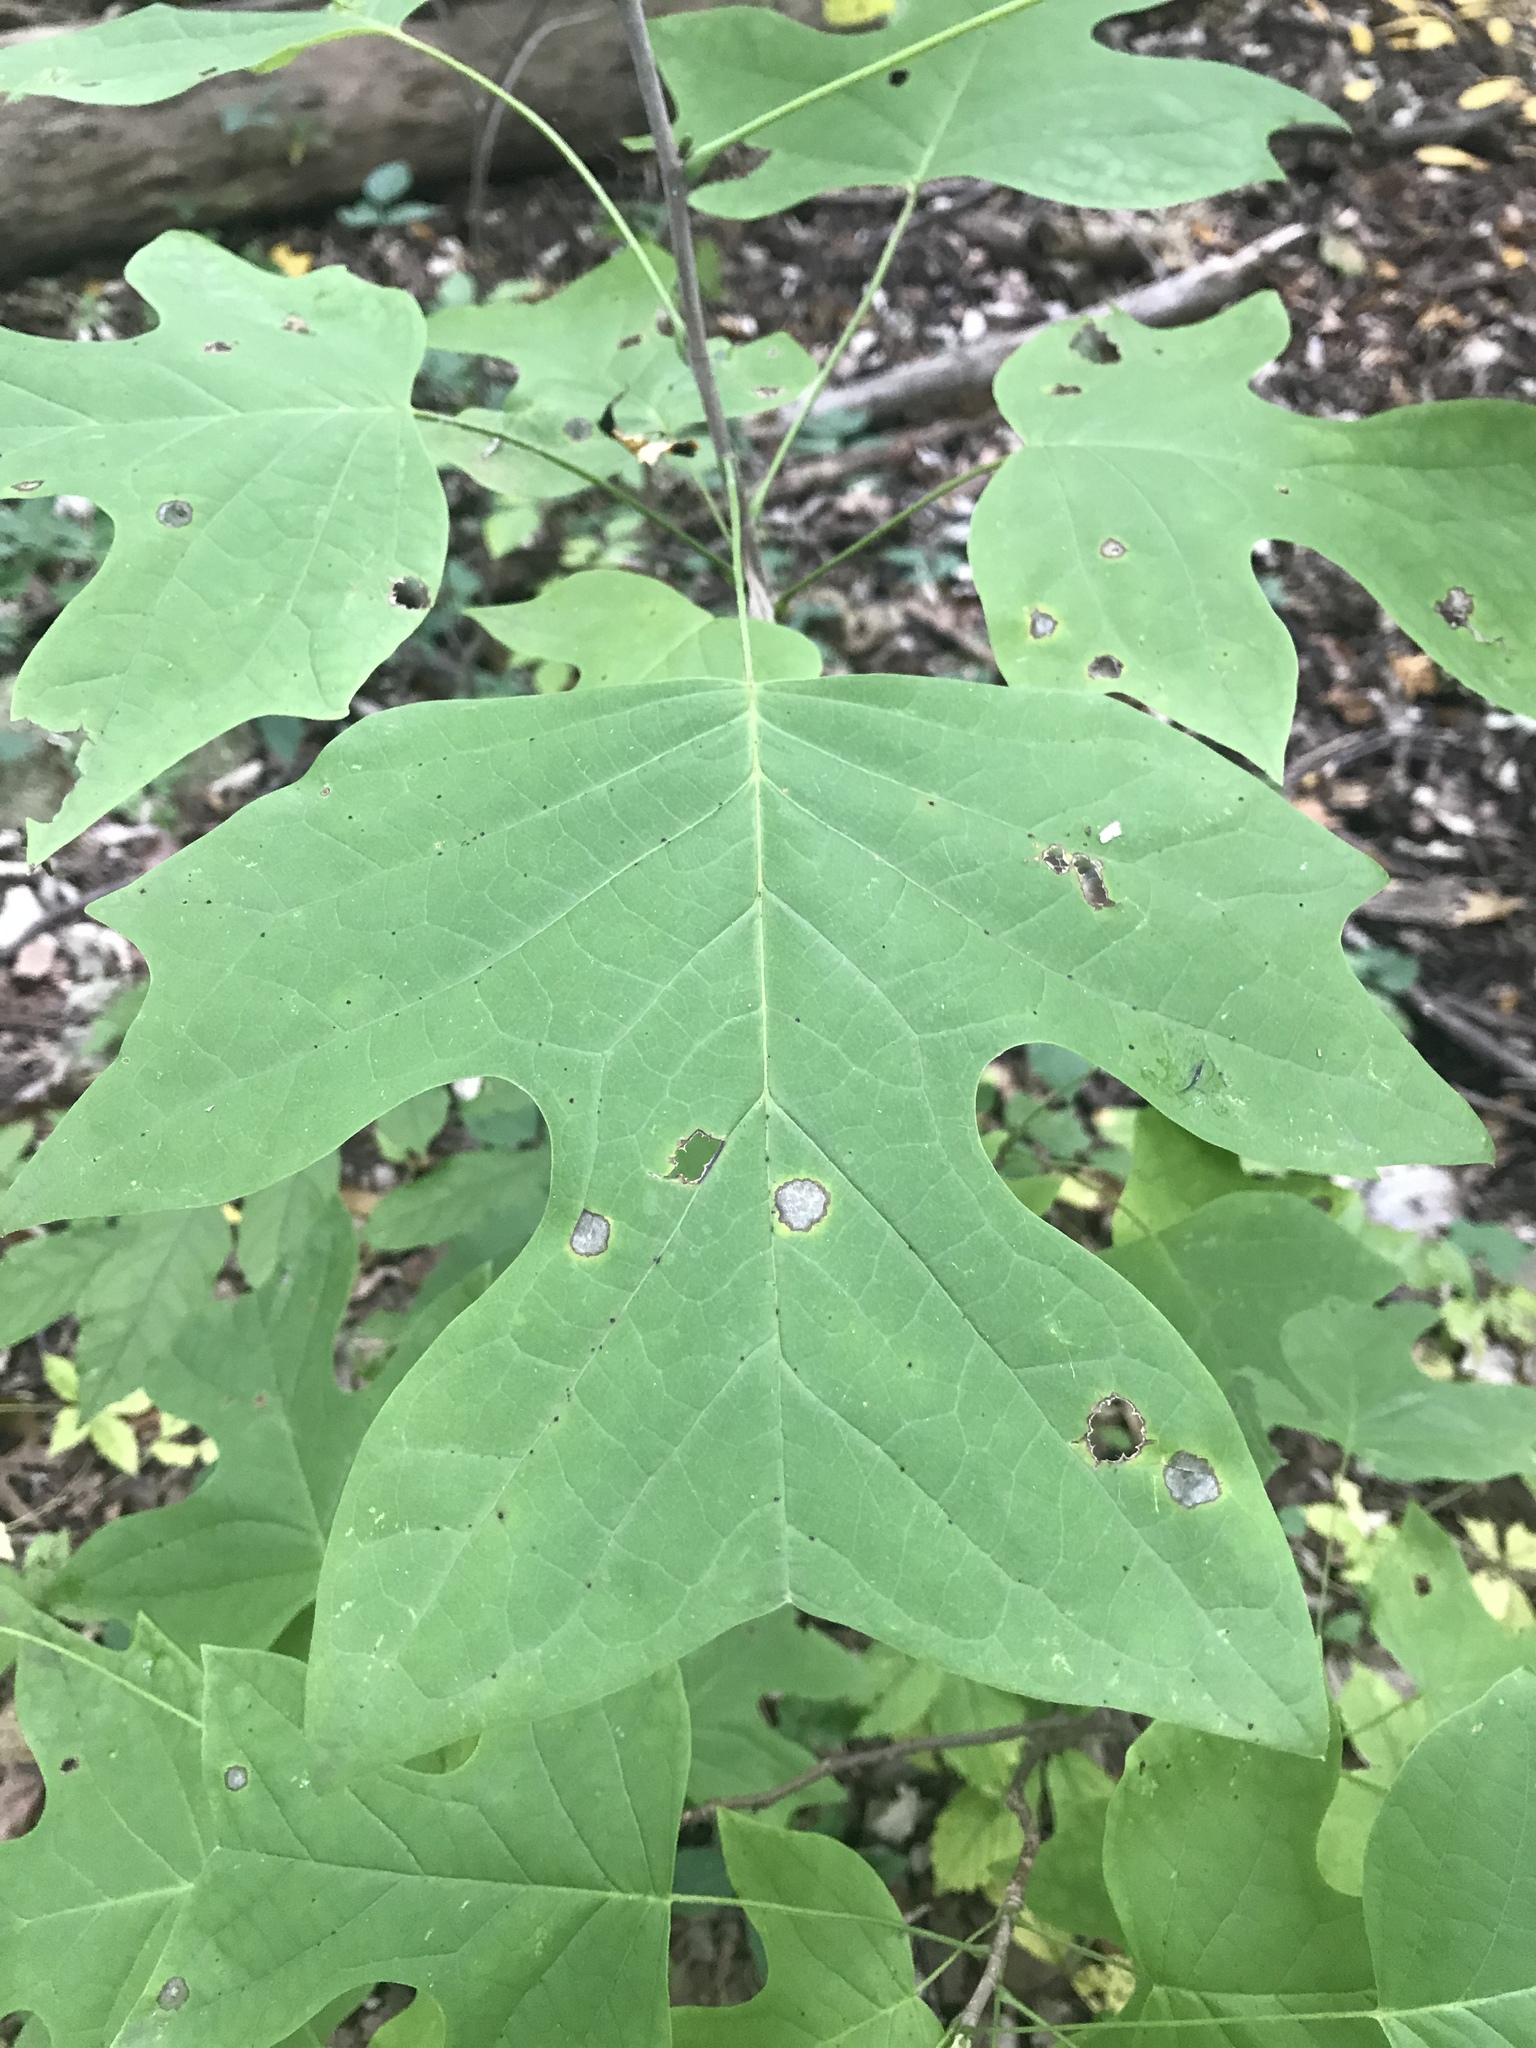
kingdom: Plantae
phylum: Tracheophyta
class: Magnoliopsida
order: Magnoliales
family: Magnoliaceae
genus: Liriodendron
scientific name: Liriodendron tulipifera
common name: Tulip tree
